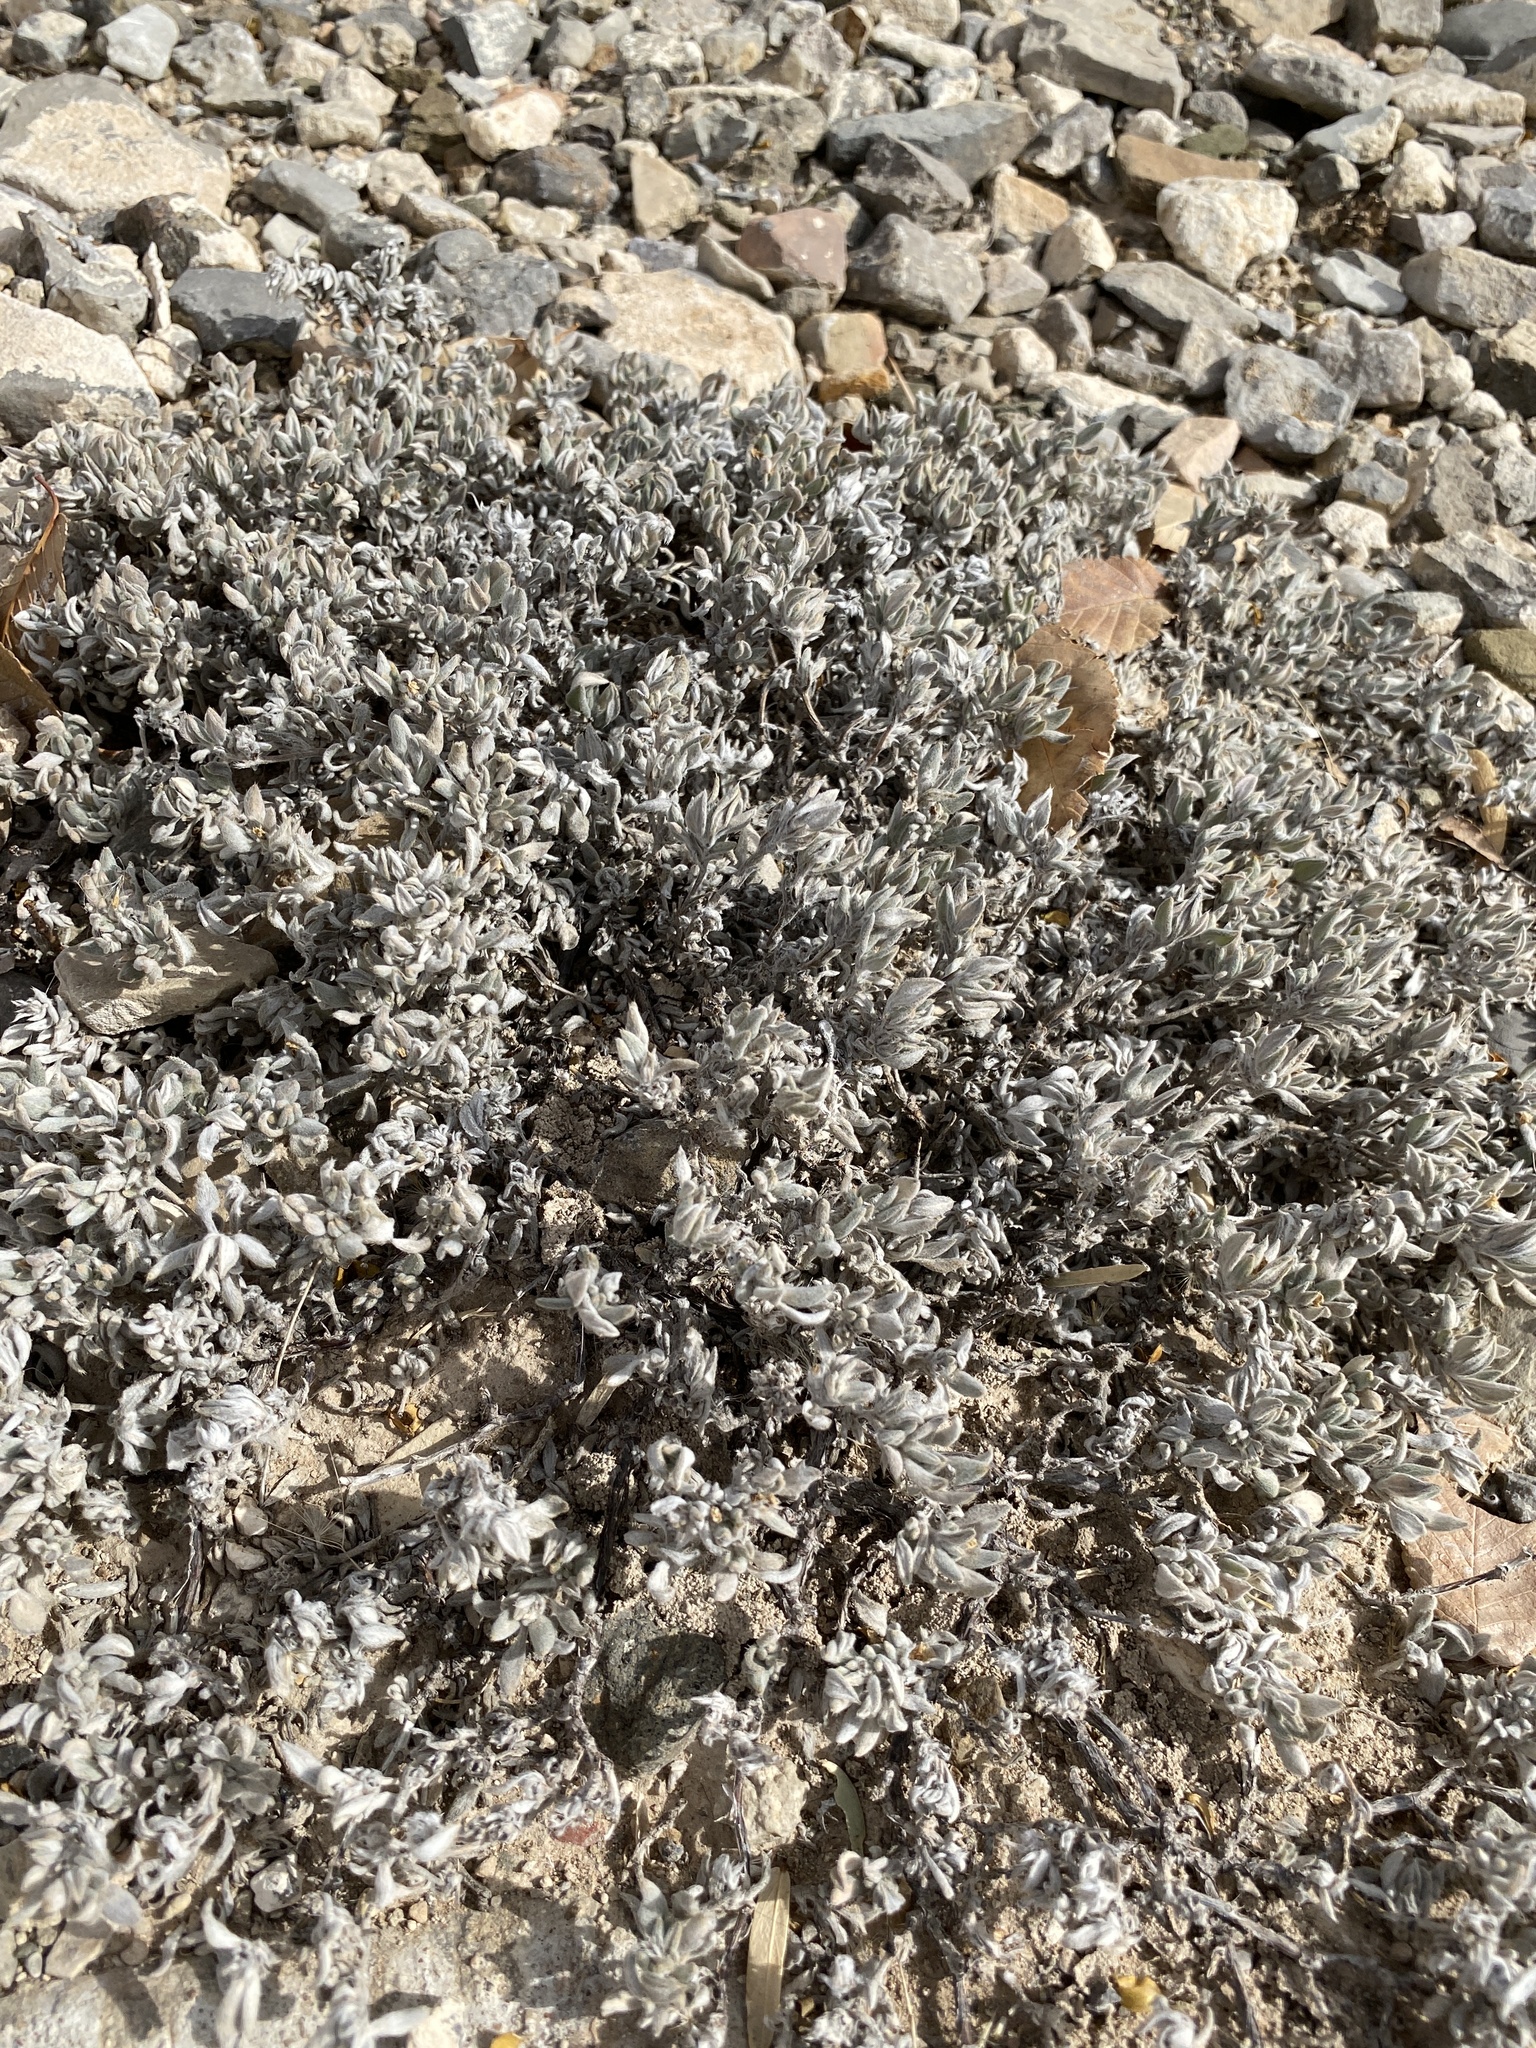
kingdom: Plantae
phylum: Tracheophyta
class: Magnoliopsida
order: Boraginales
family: Ehretiaceae
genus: Tiquilia
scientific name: Tiquilia canescens
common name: Hairy tiquilia
